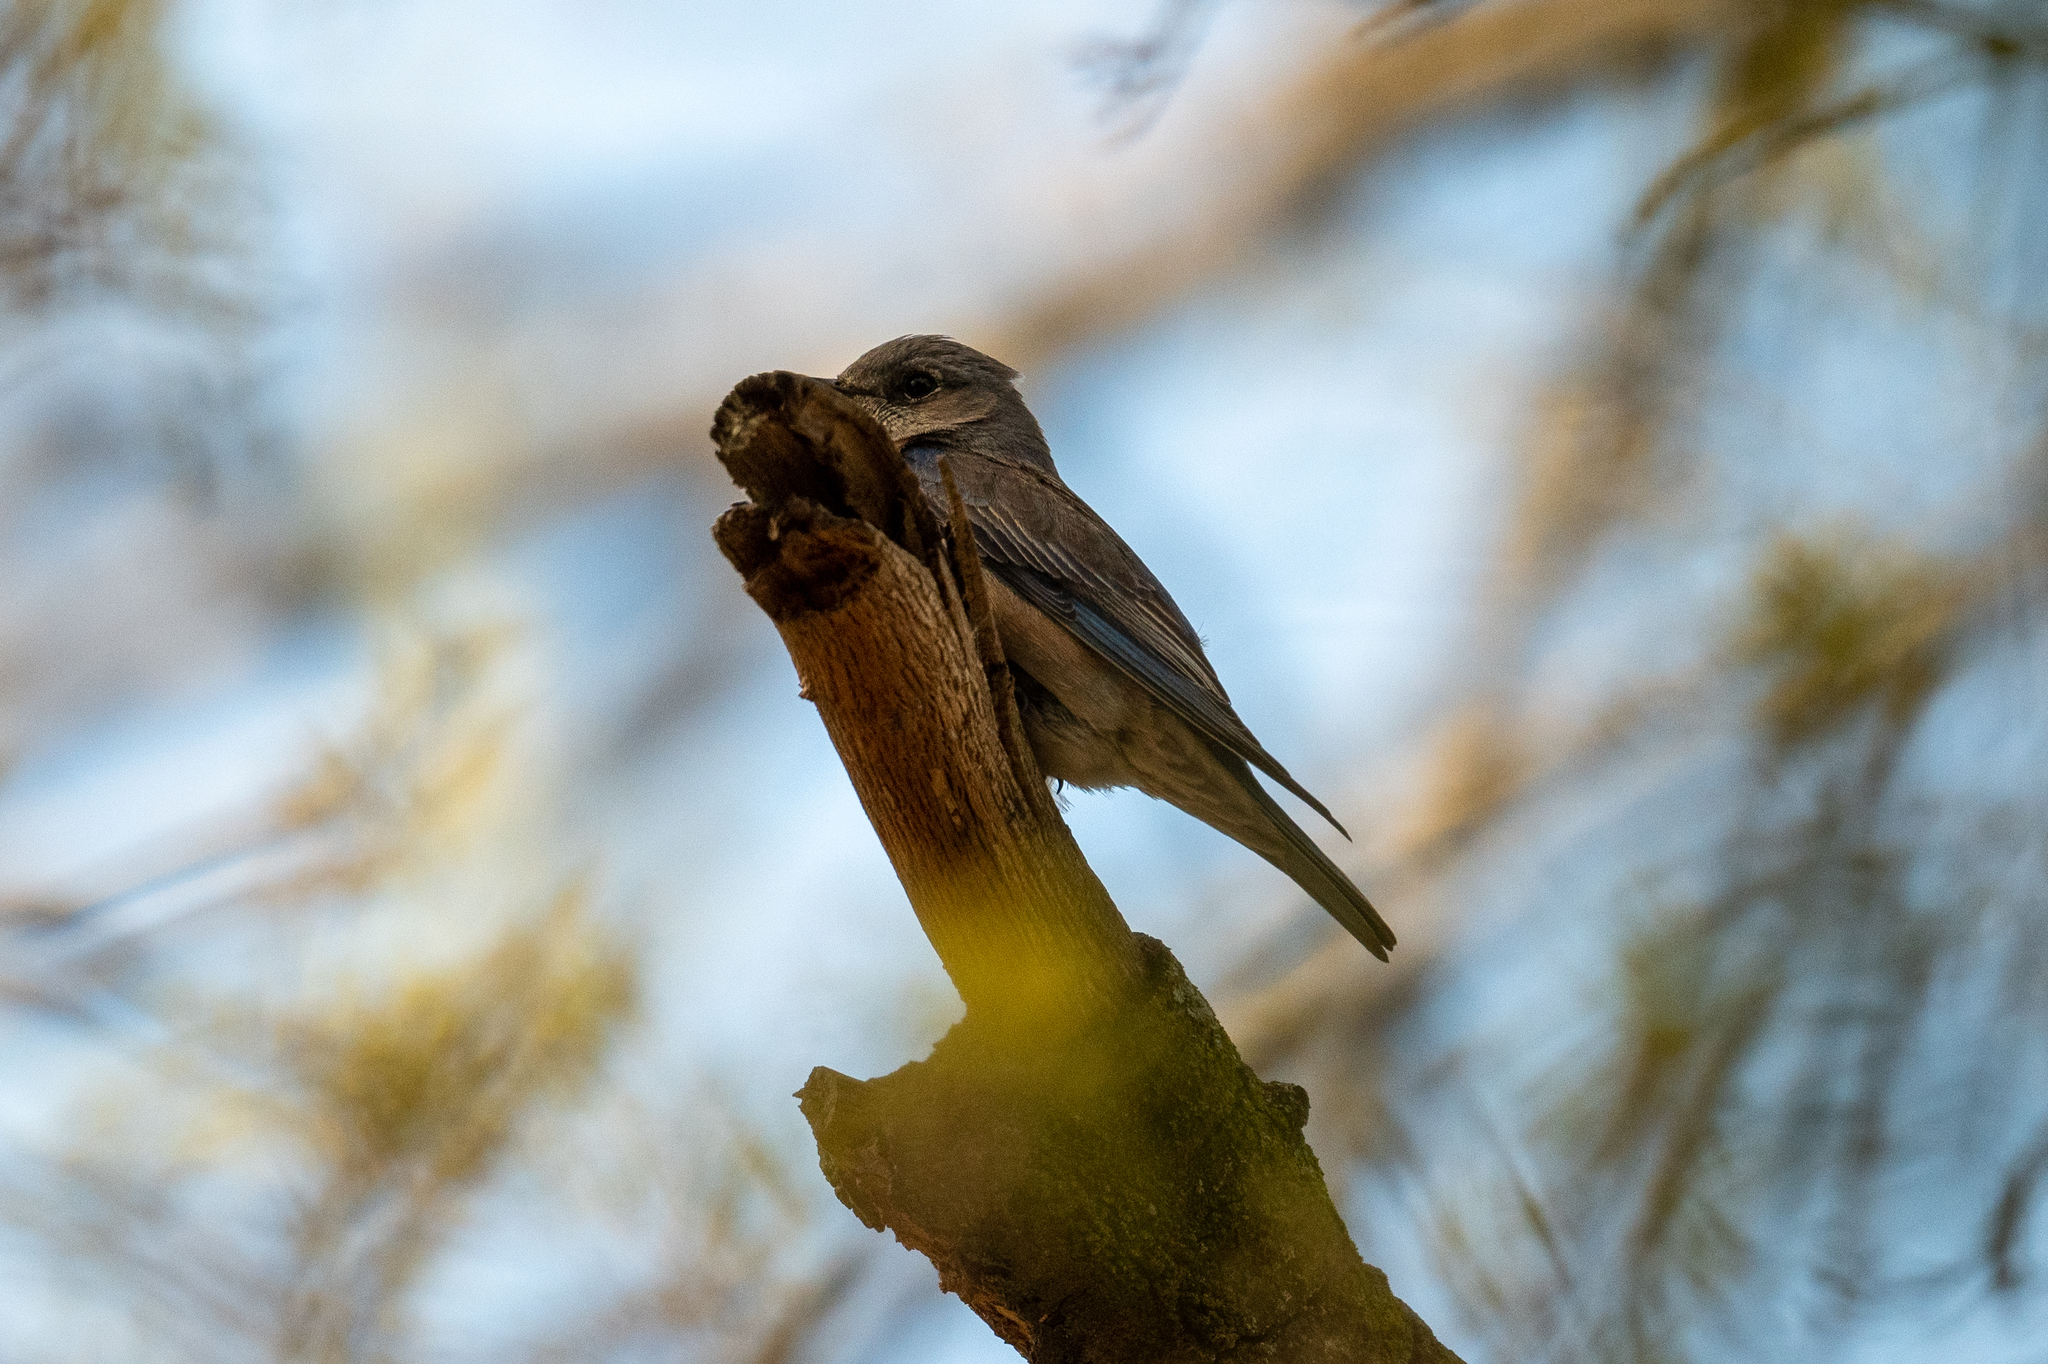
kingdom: Animalia
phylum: Chordata
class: Aves
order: Passeriformes
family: Turdidae
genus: Sialia
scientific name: Sialia mexicana
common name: Western bluebird
